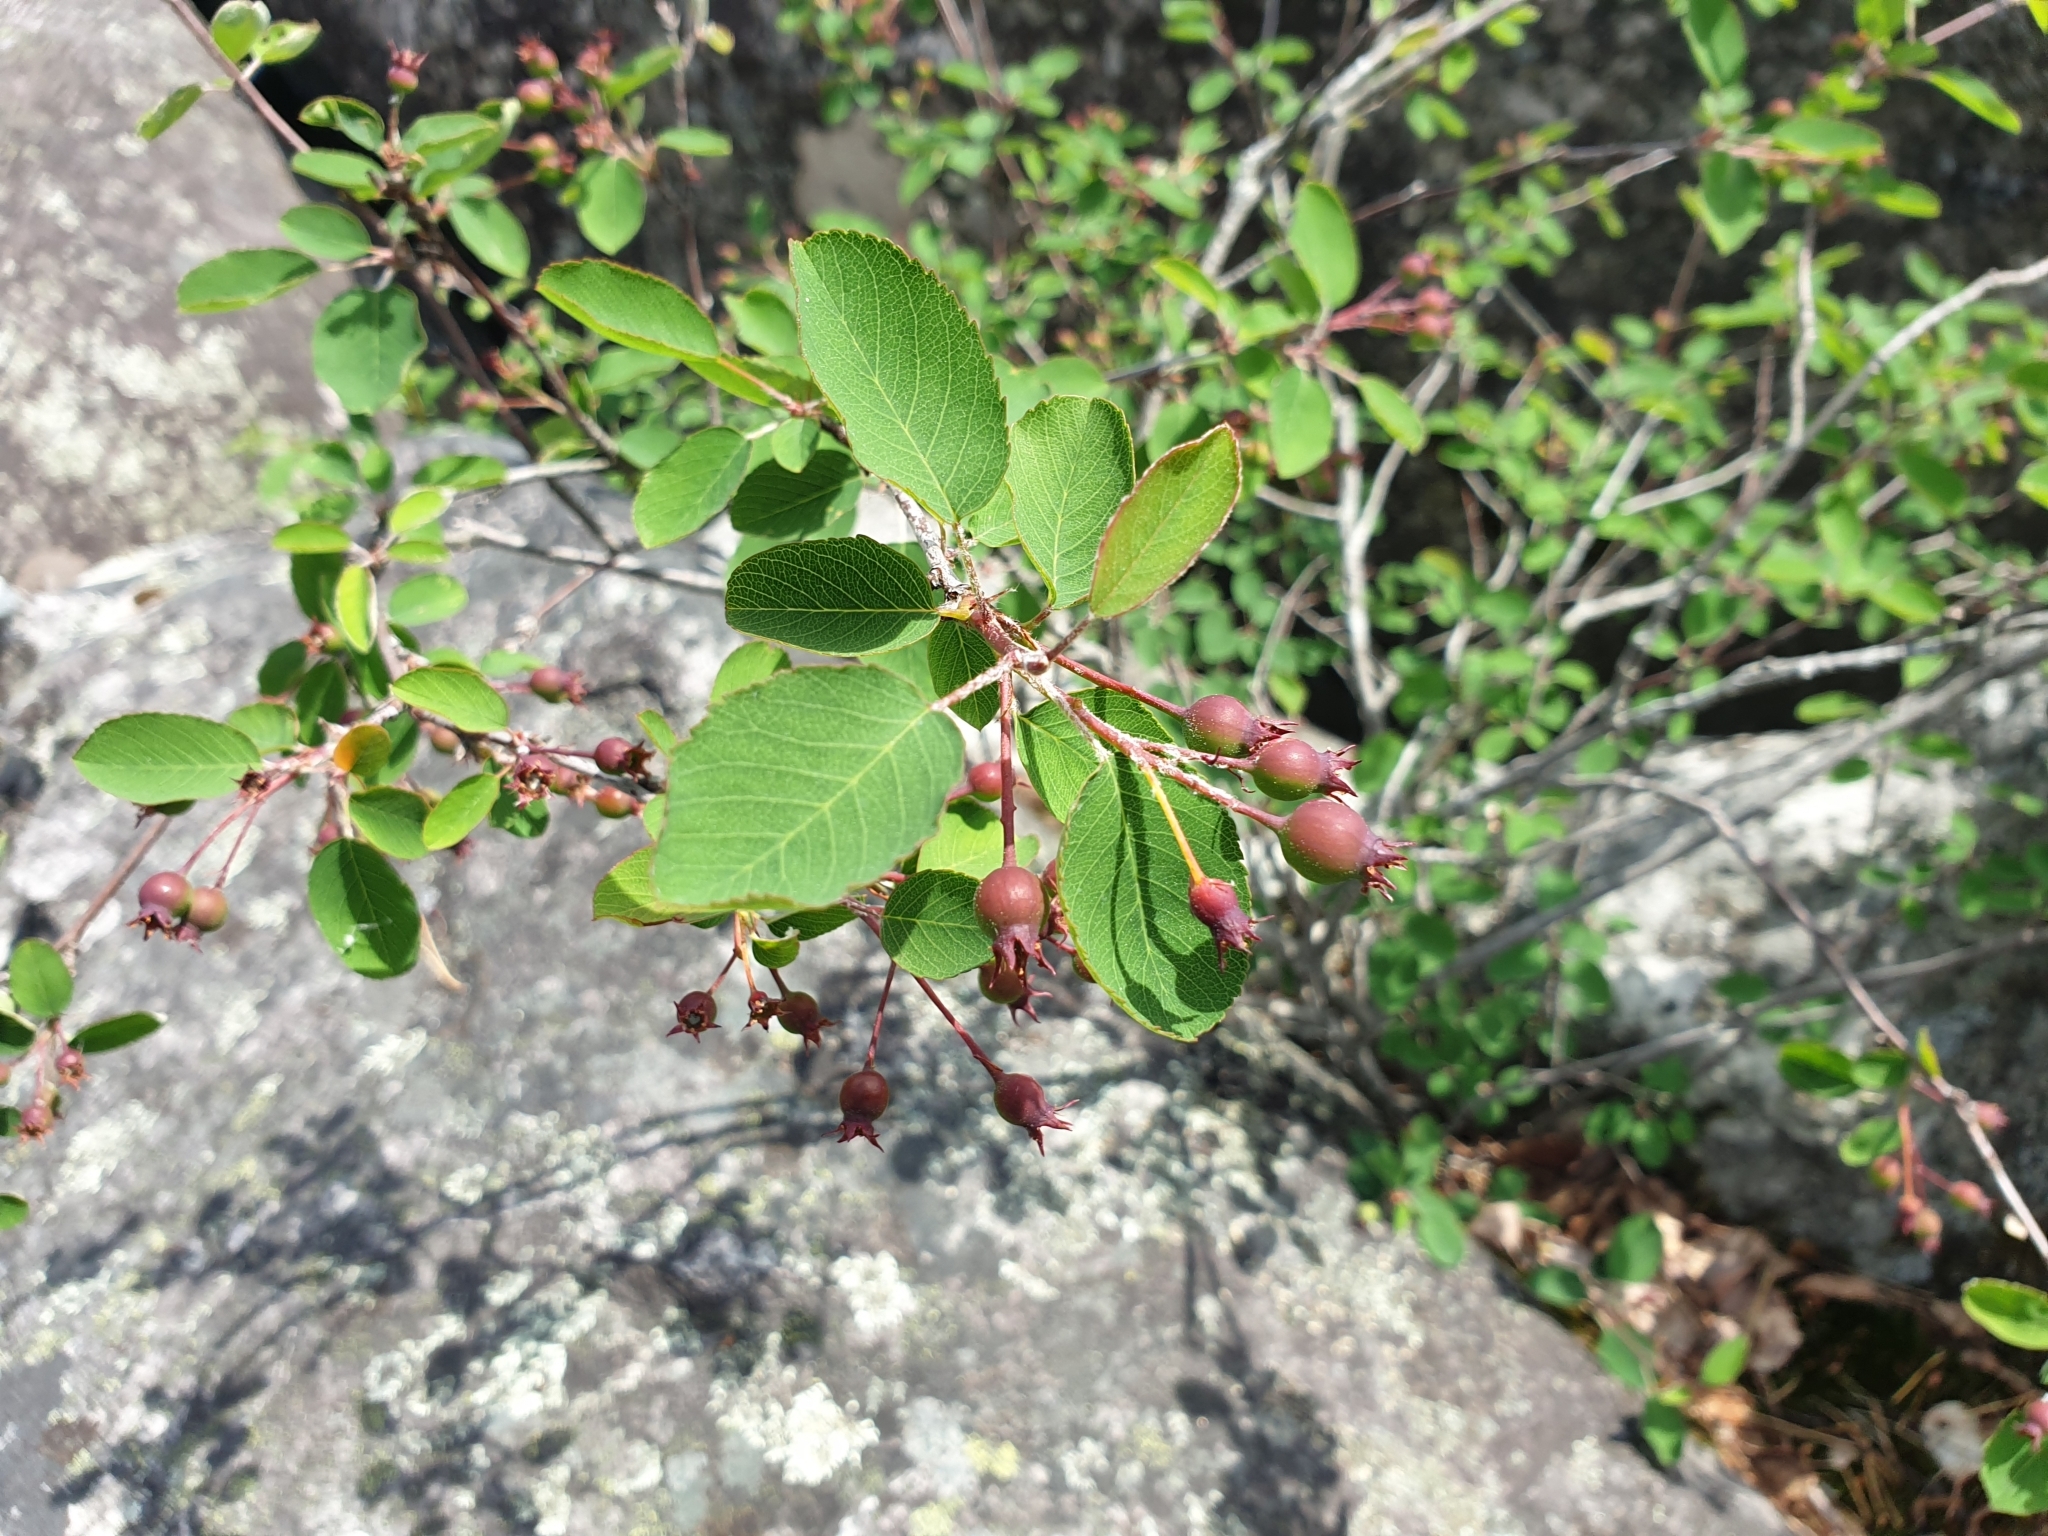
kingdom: Plantae
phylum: Tracheophyta
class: Magnoliopsida
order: Rosales
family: Rosaceae
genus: Amelanchier
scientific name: Amelanchier ovalis
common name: Serviceberry
